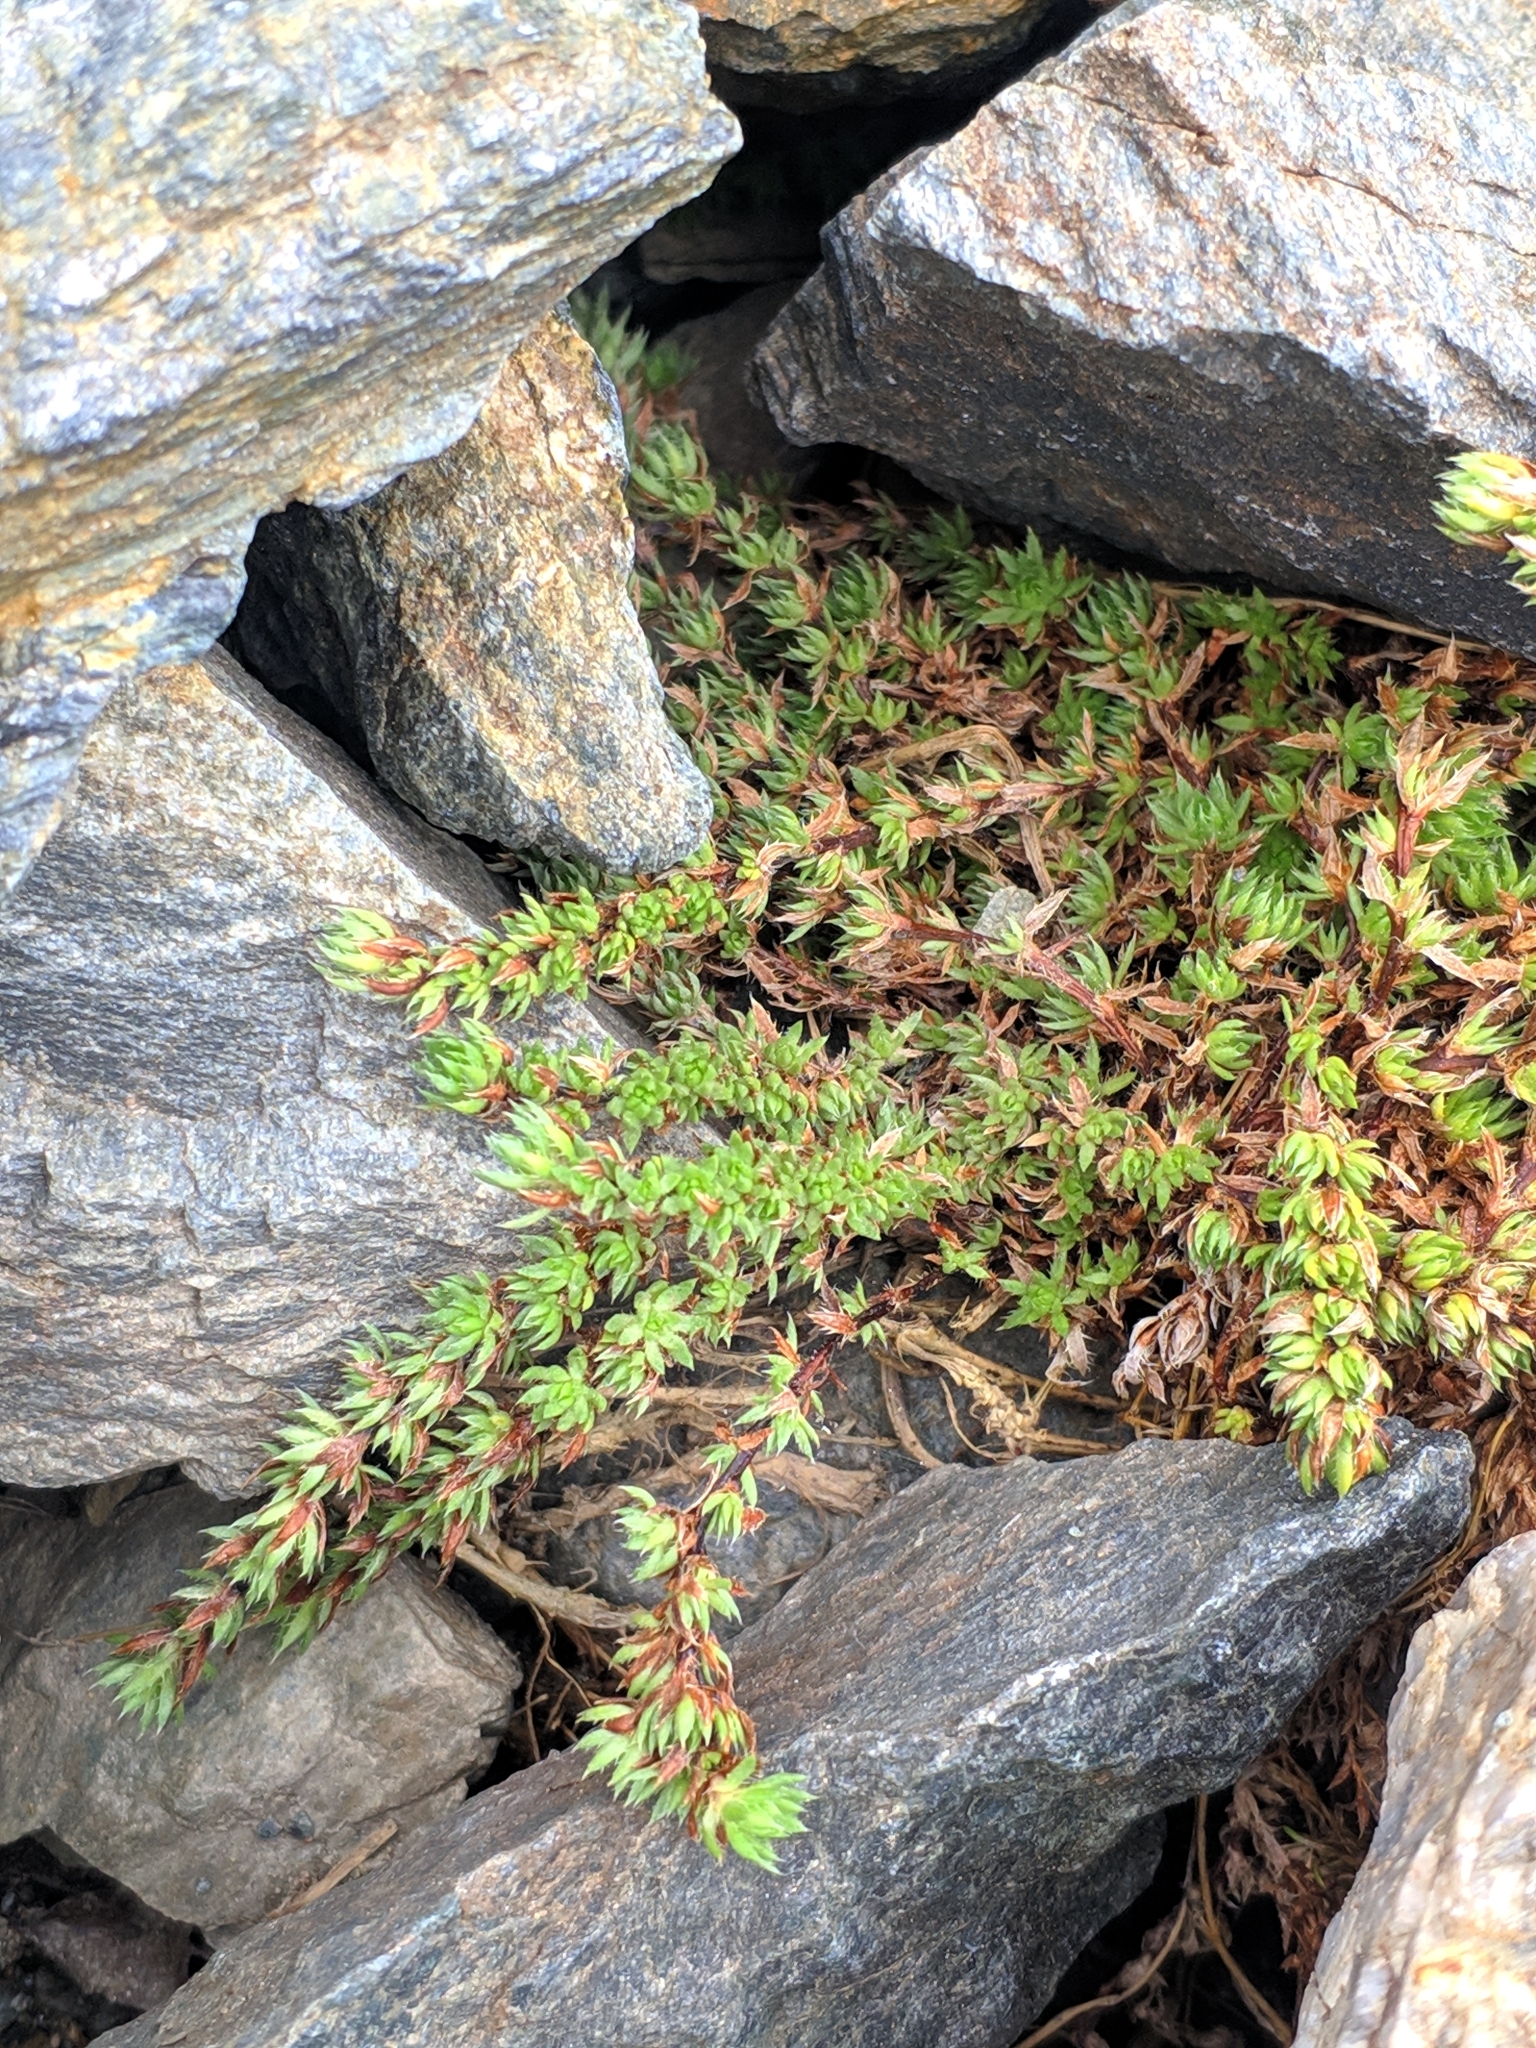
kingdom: Plantae
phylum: Tracheophyta
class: Magnoliopsida
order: Saxifragales
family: Saxifragaceae
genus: Saxifraga
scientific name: Saxifraga bryoides
